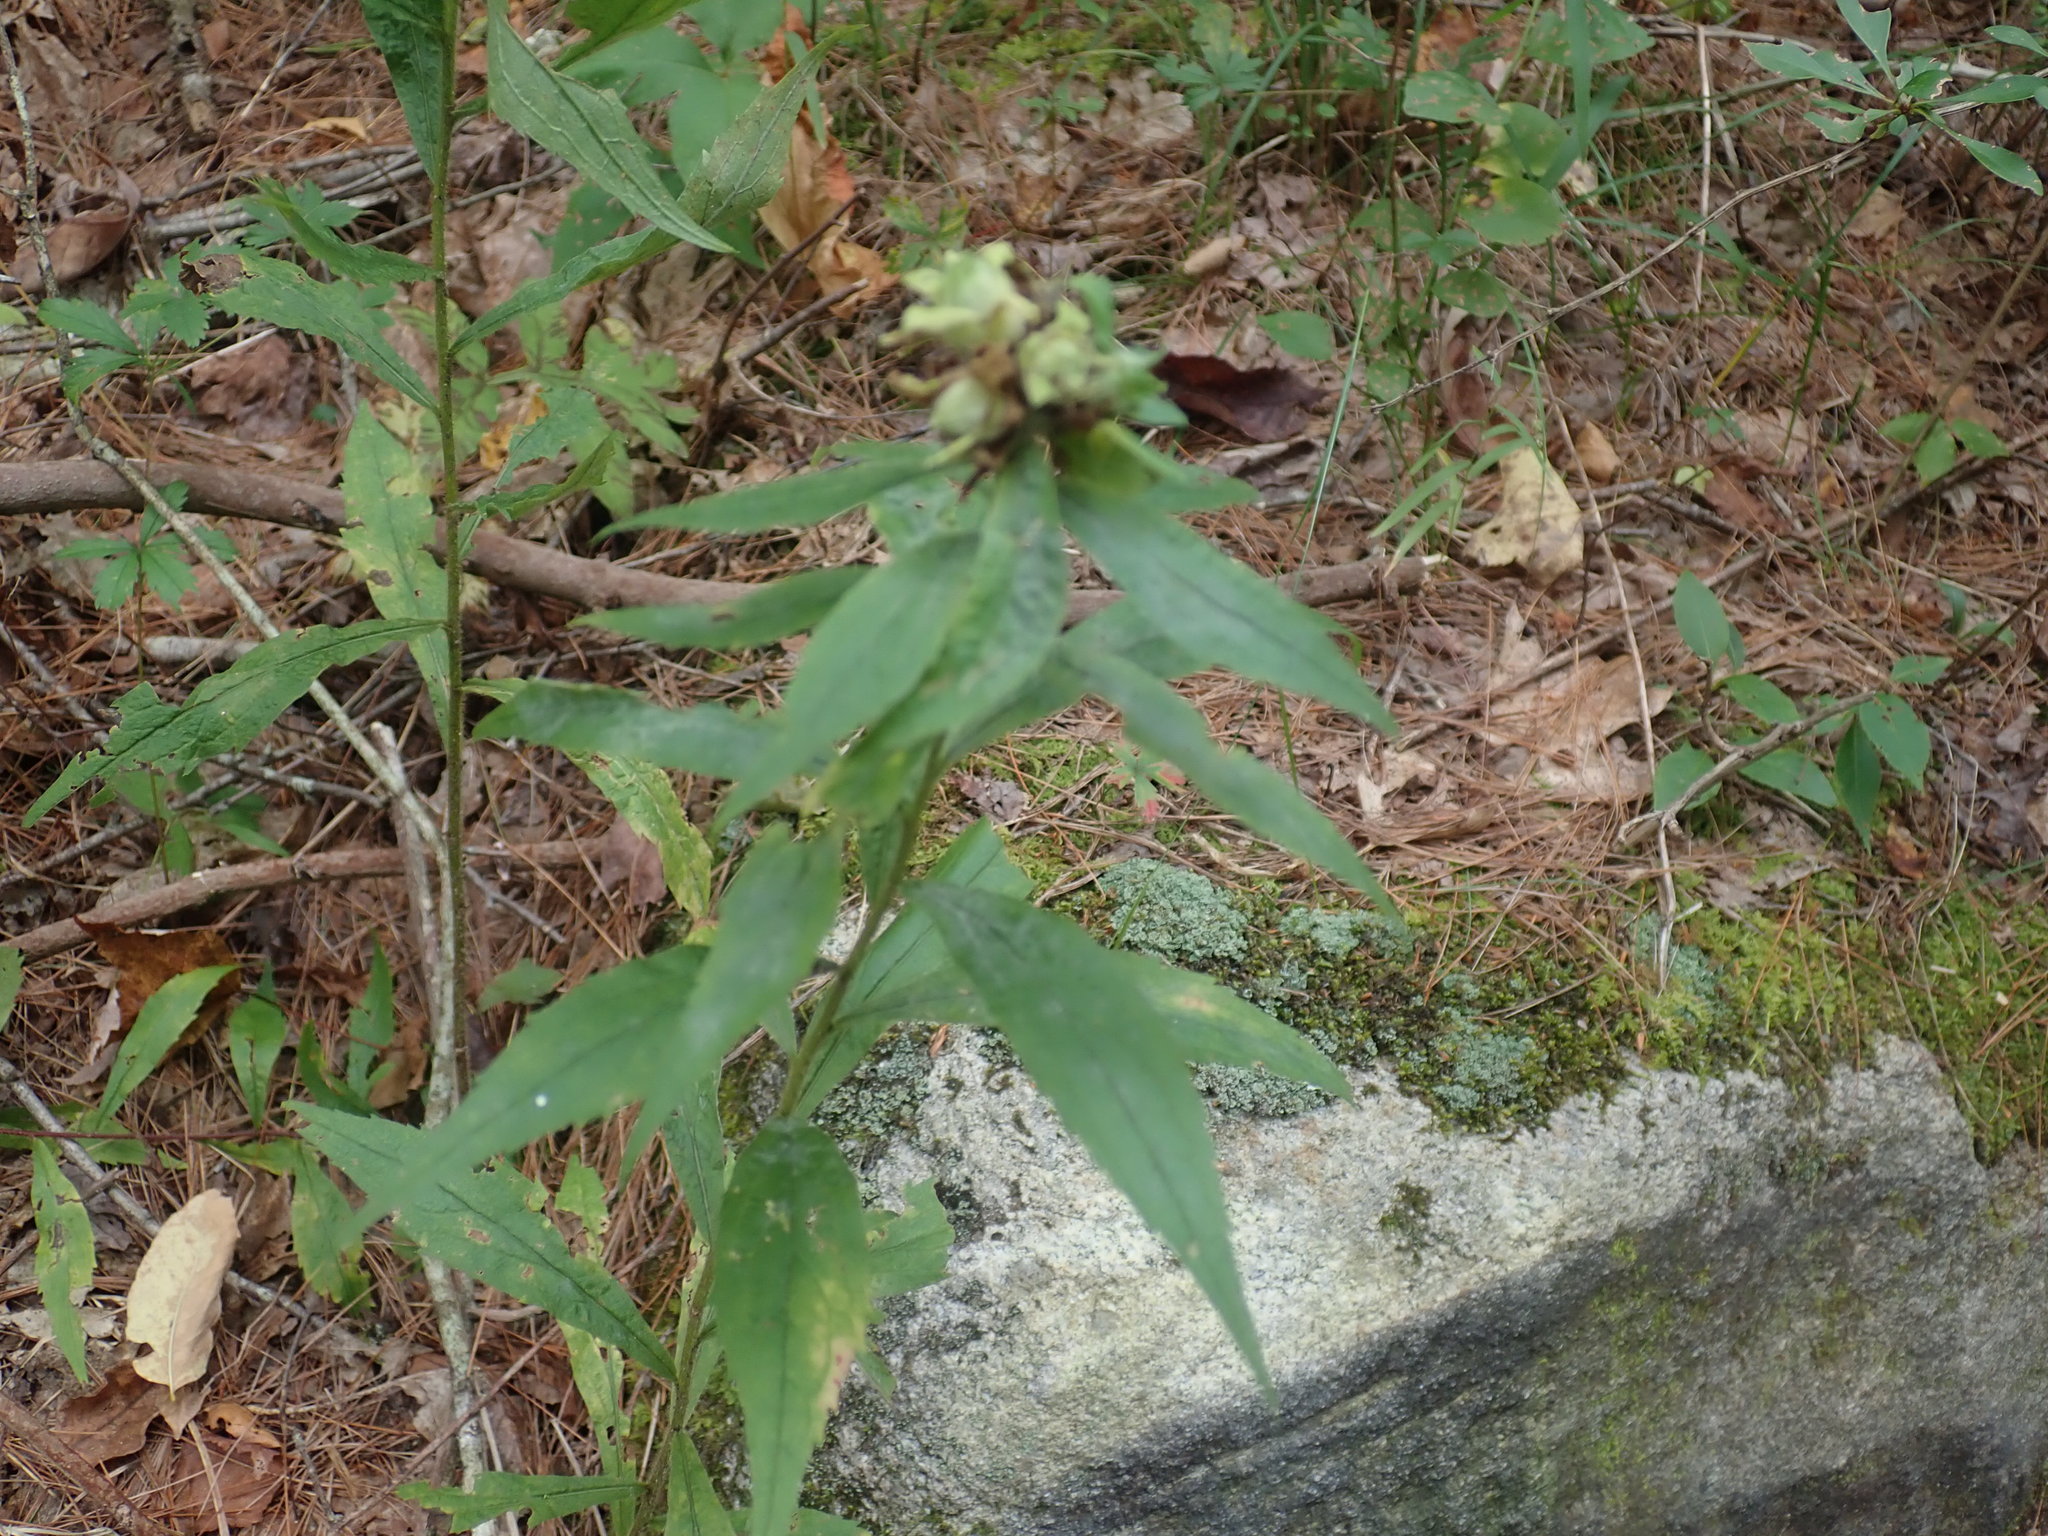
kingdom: Animalia
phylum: Arthropoda
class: Insecta
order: Diptera
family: Tephritidae
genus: Procecidochares
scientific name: Procecidochares atra
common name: Goldenrod brussels sprout gall fly
